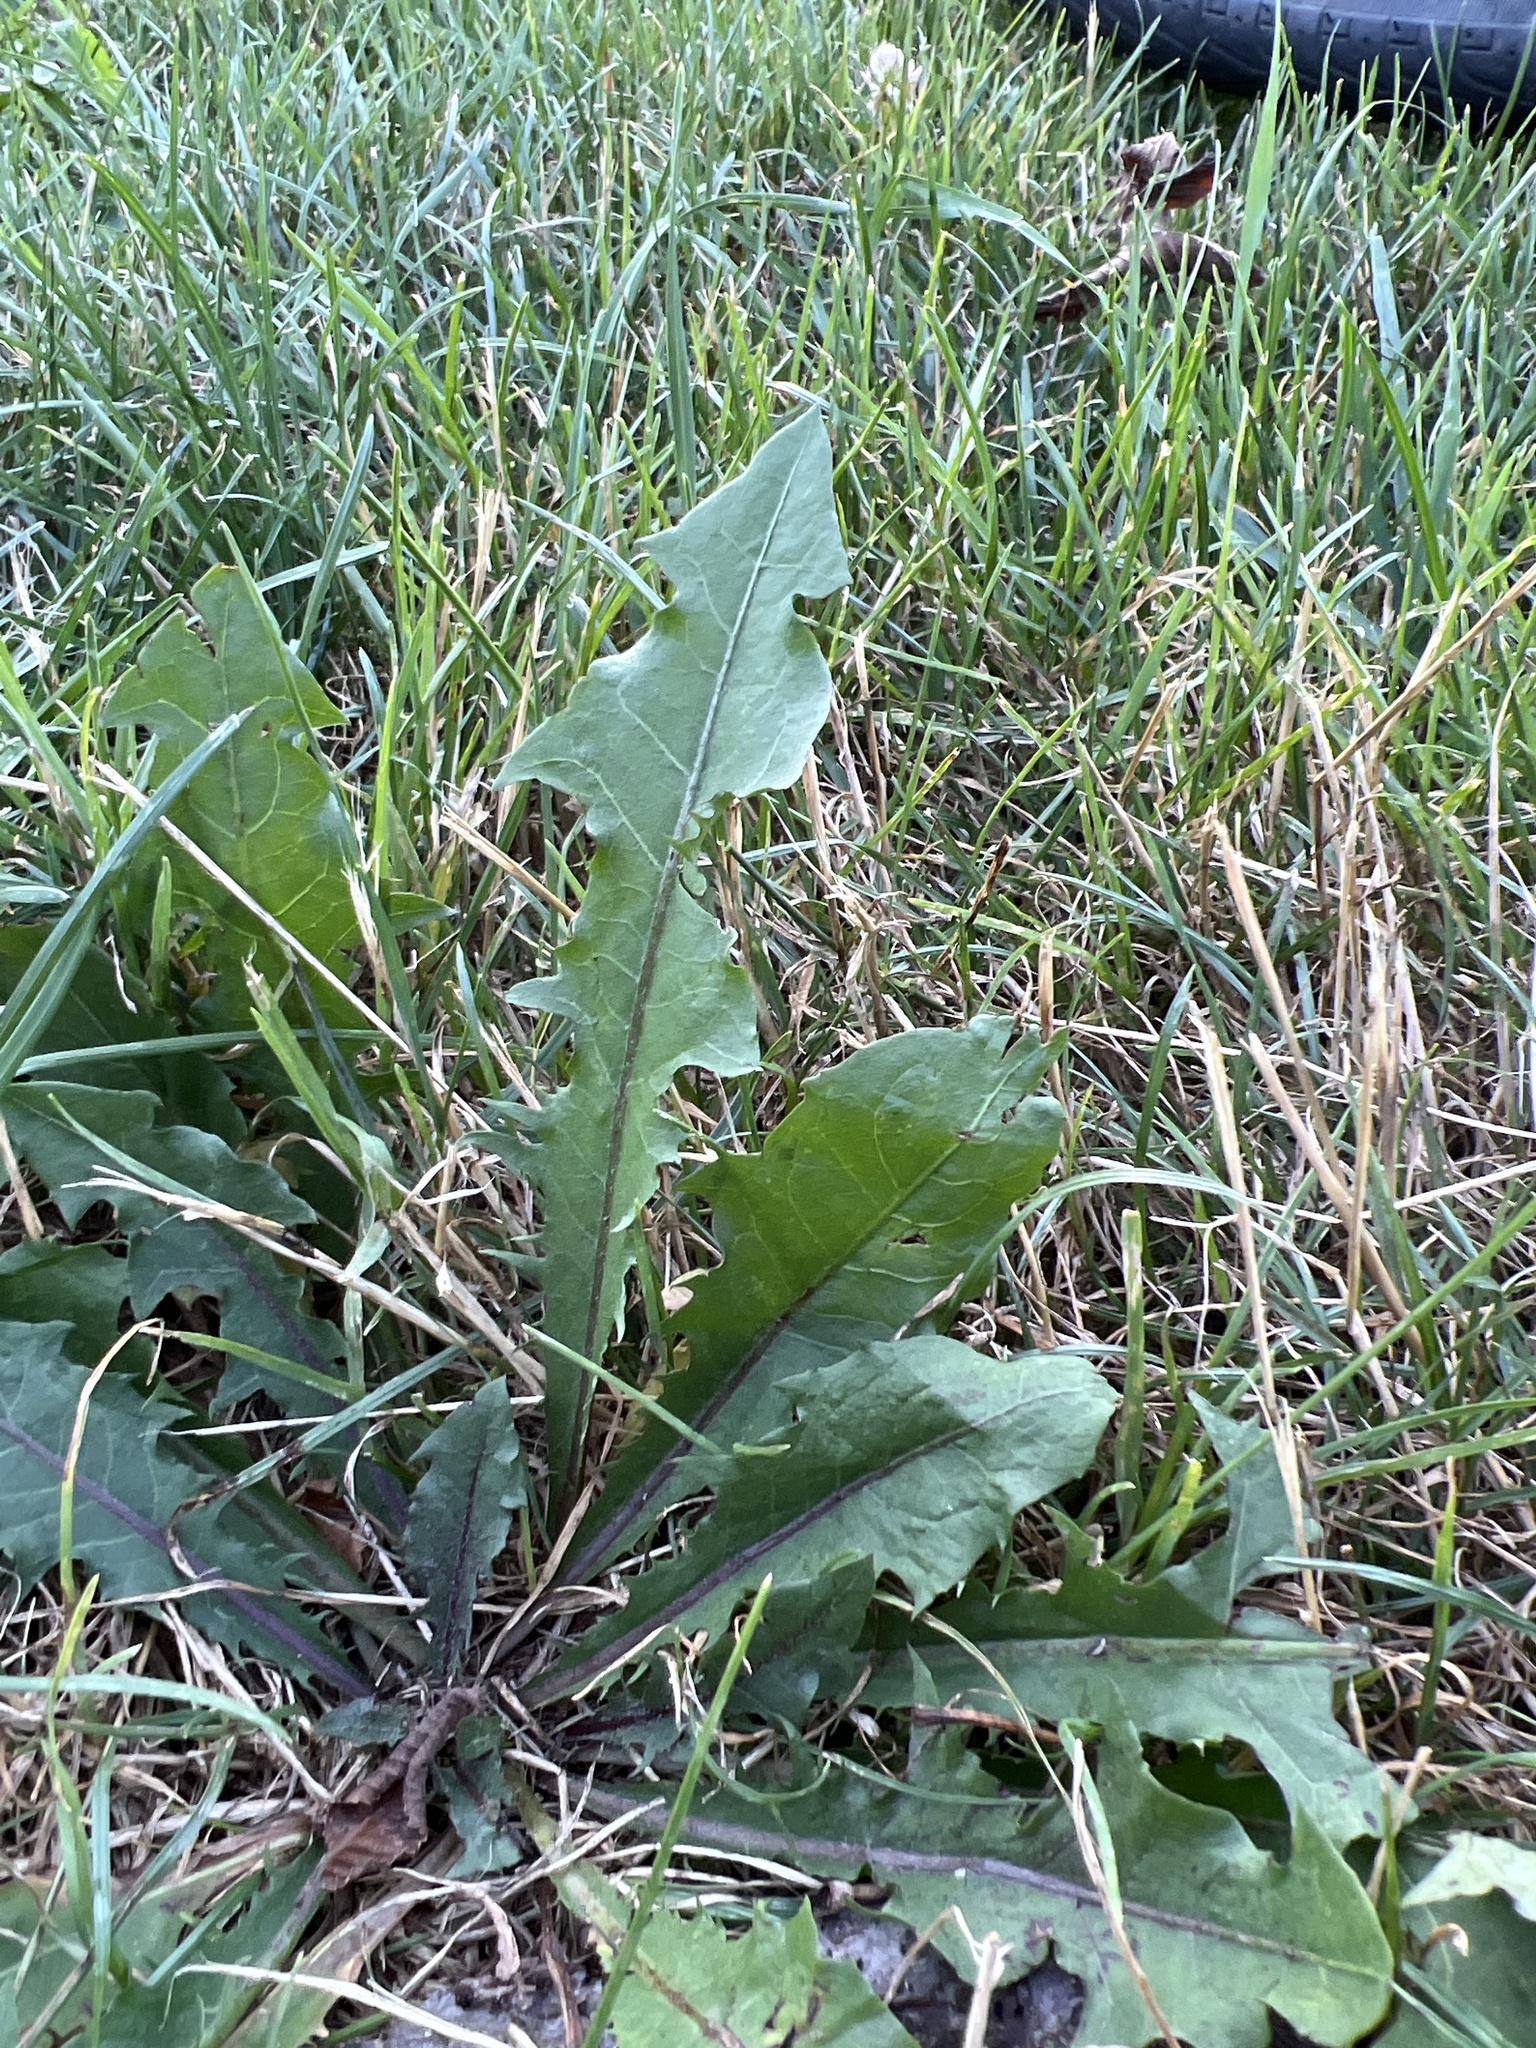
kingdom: Plantae
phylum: Tracheophyta
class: Magnoliopsida
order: Asterales
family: Asteraceae
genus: Taraxacum
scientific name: Taraxacum officinale
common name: Common dandelion
